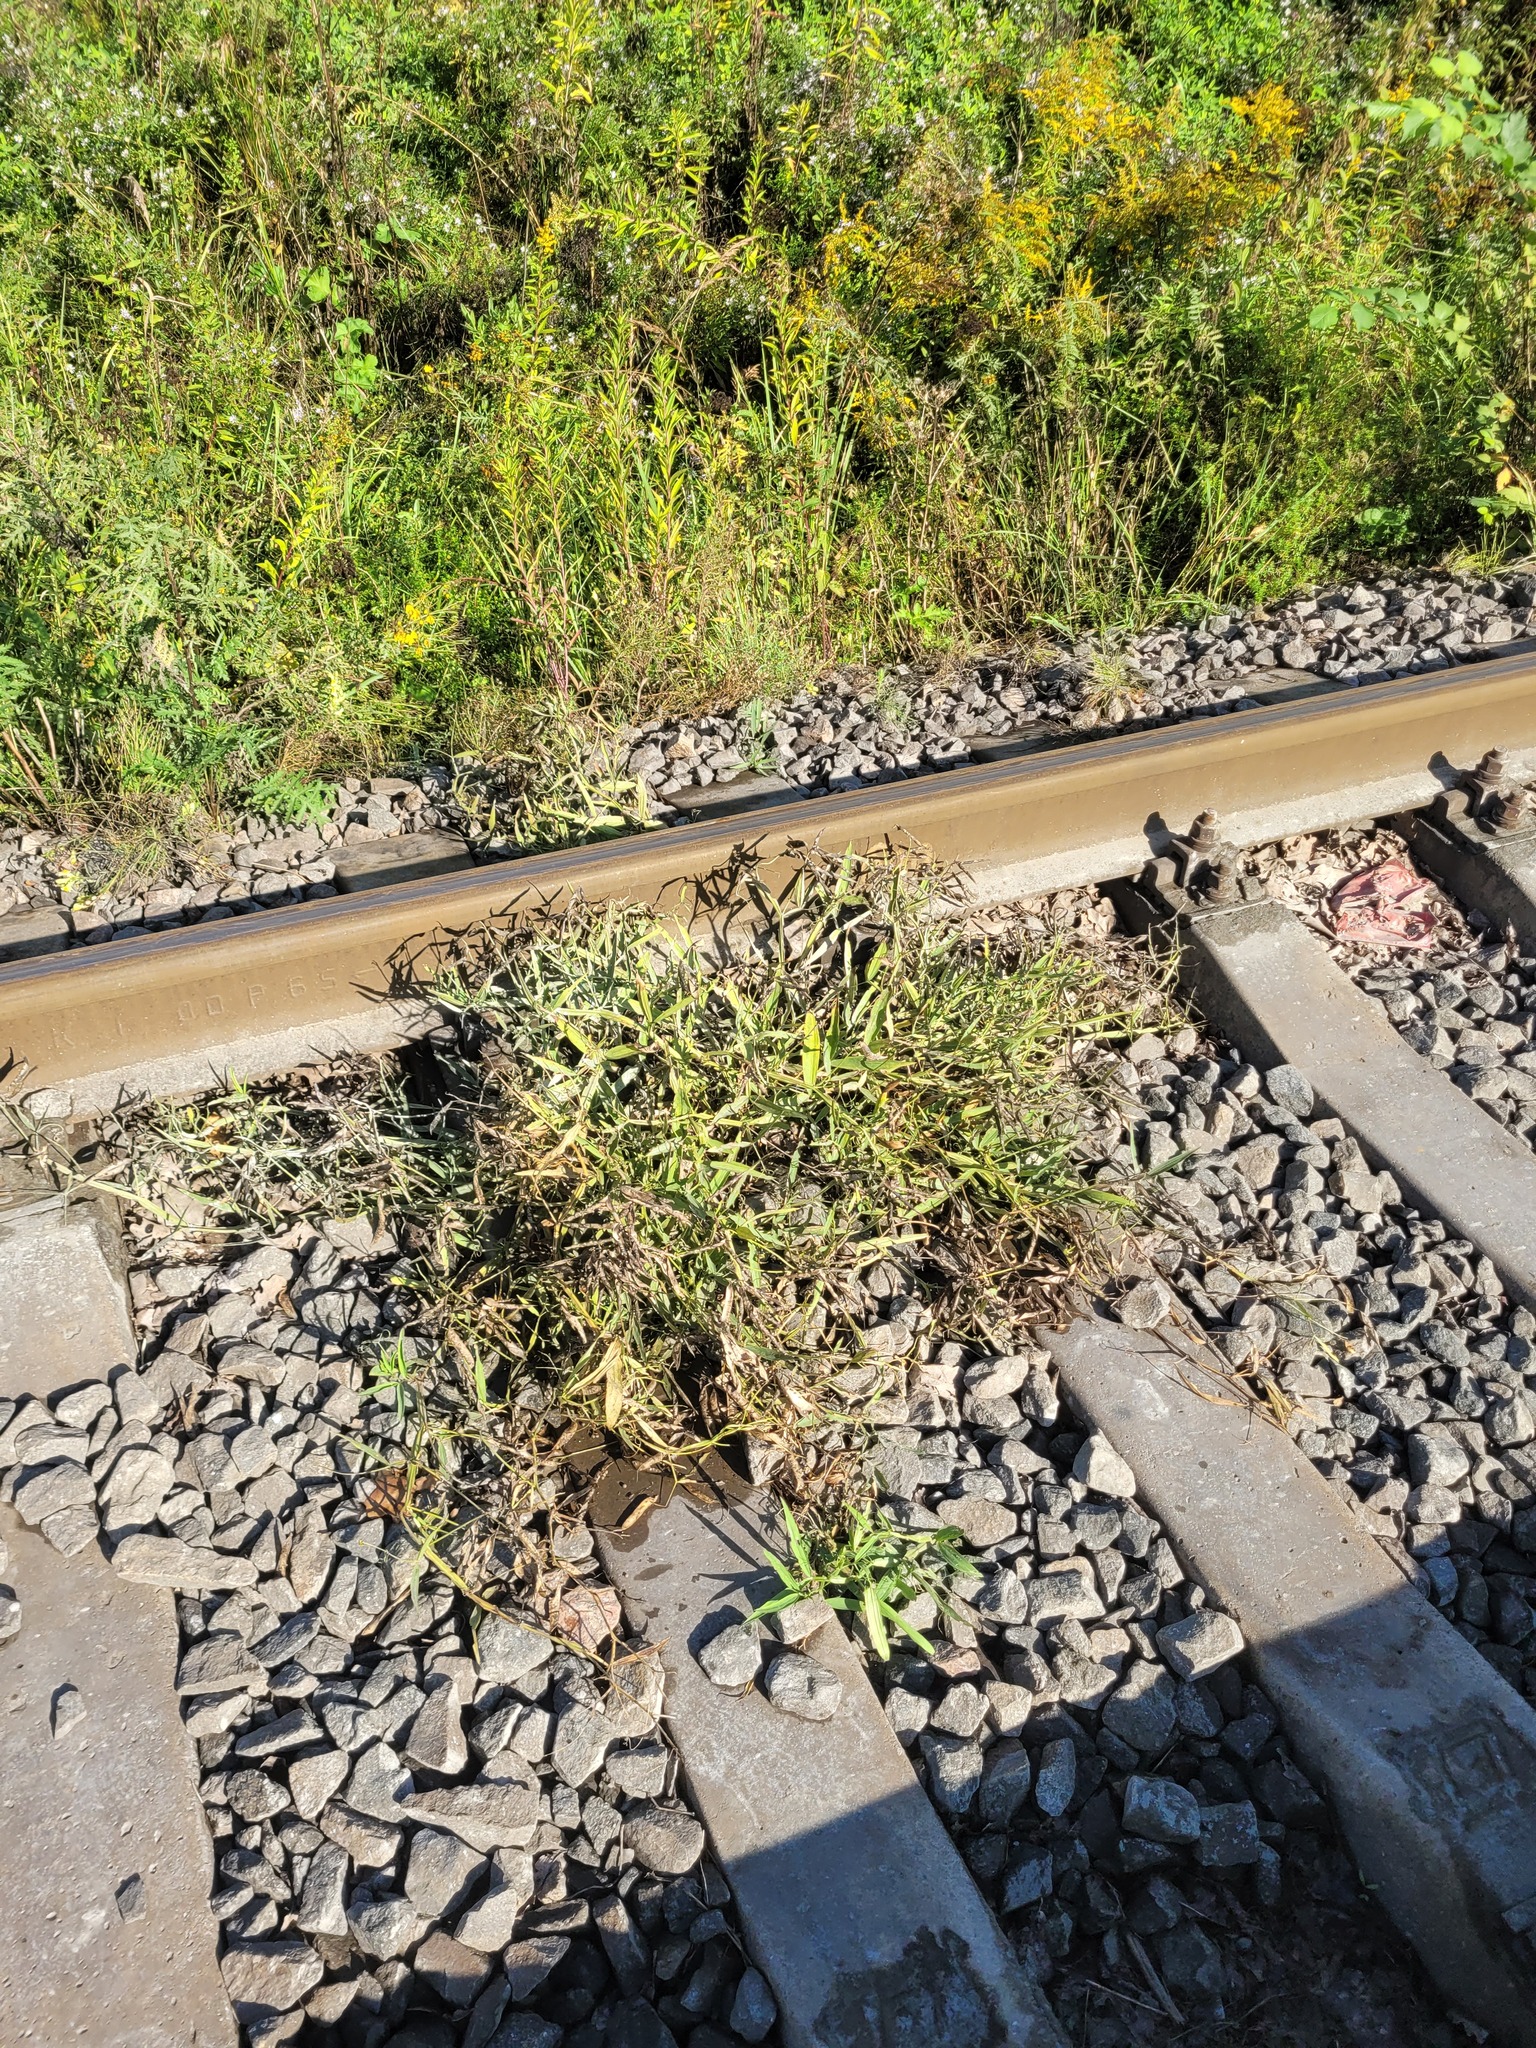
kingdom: Plantae
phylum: Tracheophyta
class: Magnoliopsida
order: Fabales
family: Fabaceae
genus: Lathyrus
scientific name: Lathyrus sylvestris
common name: Flat pea
